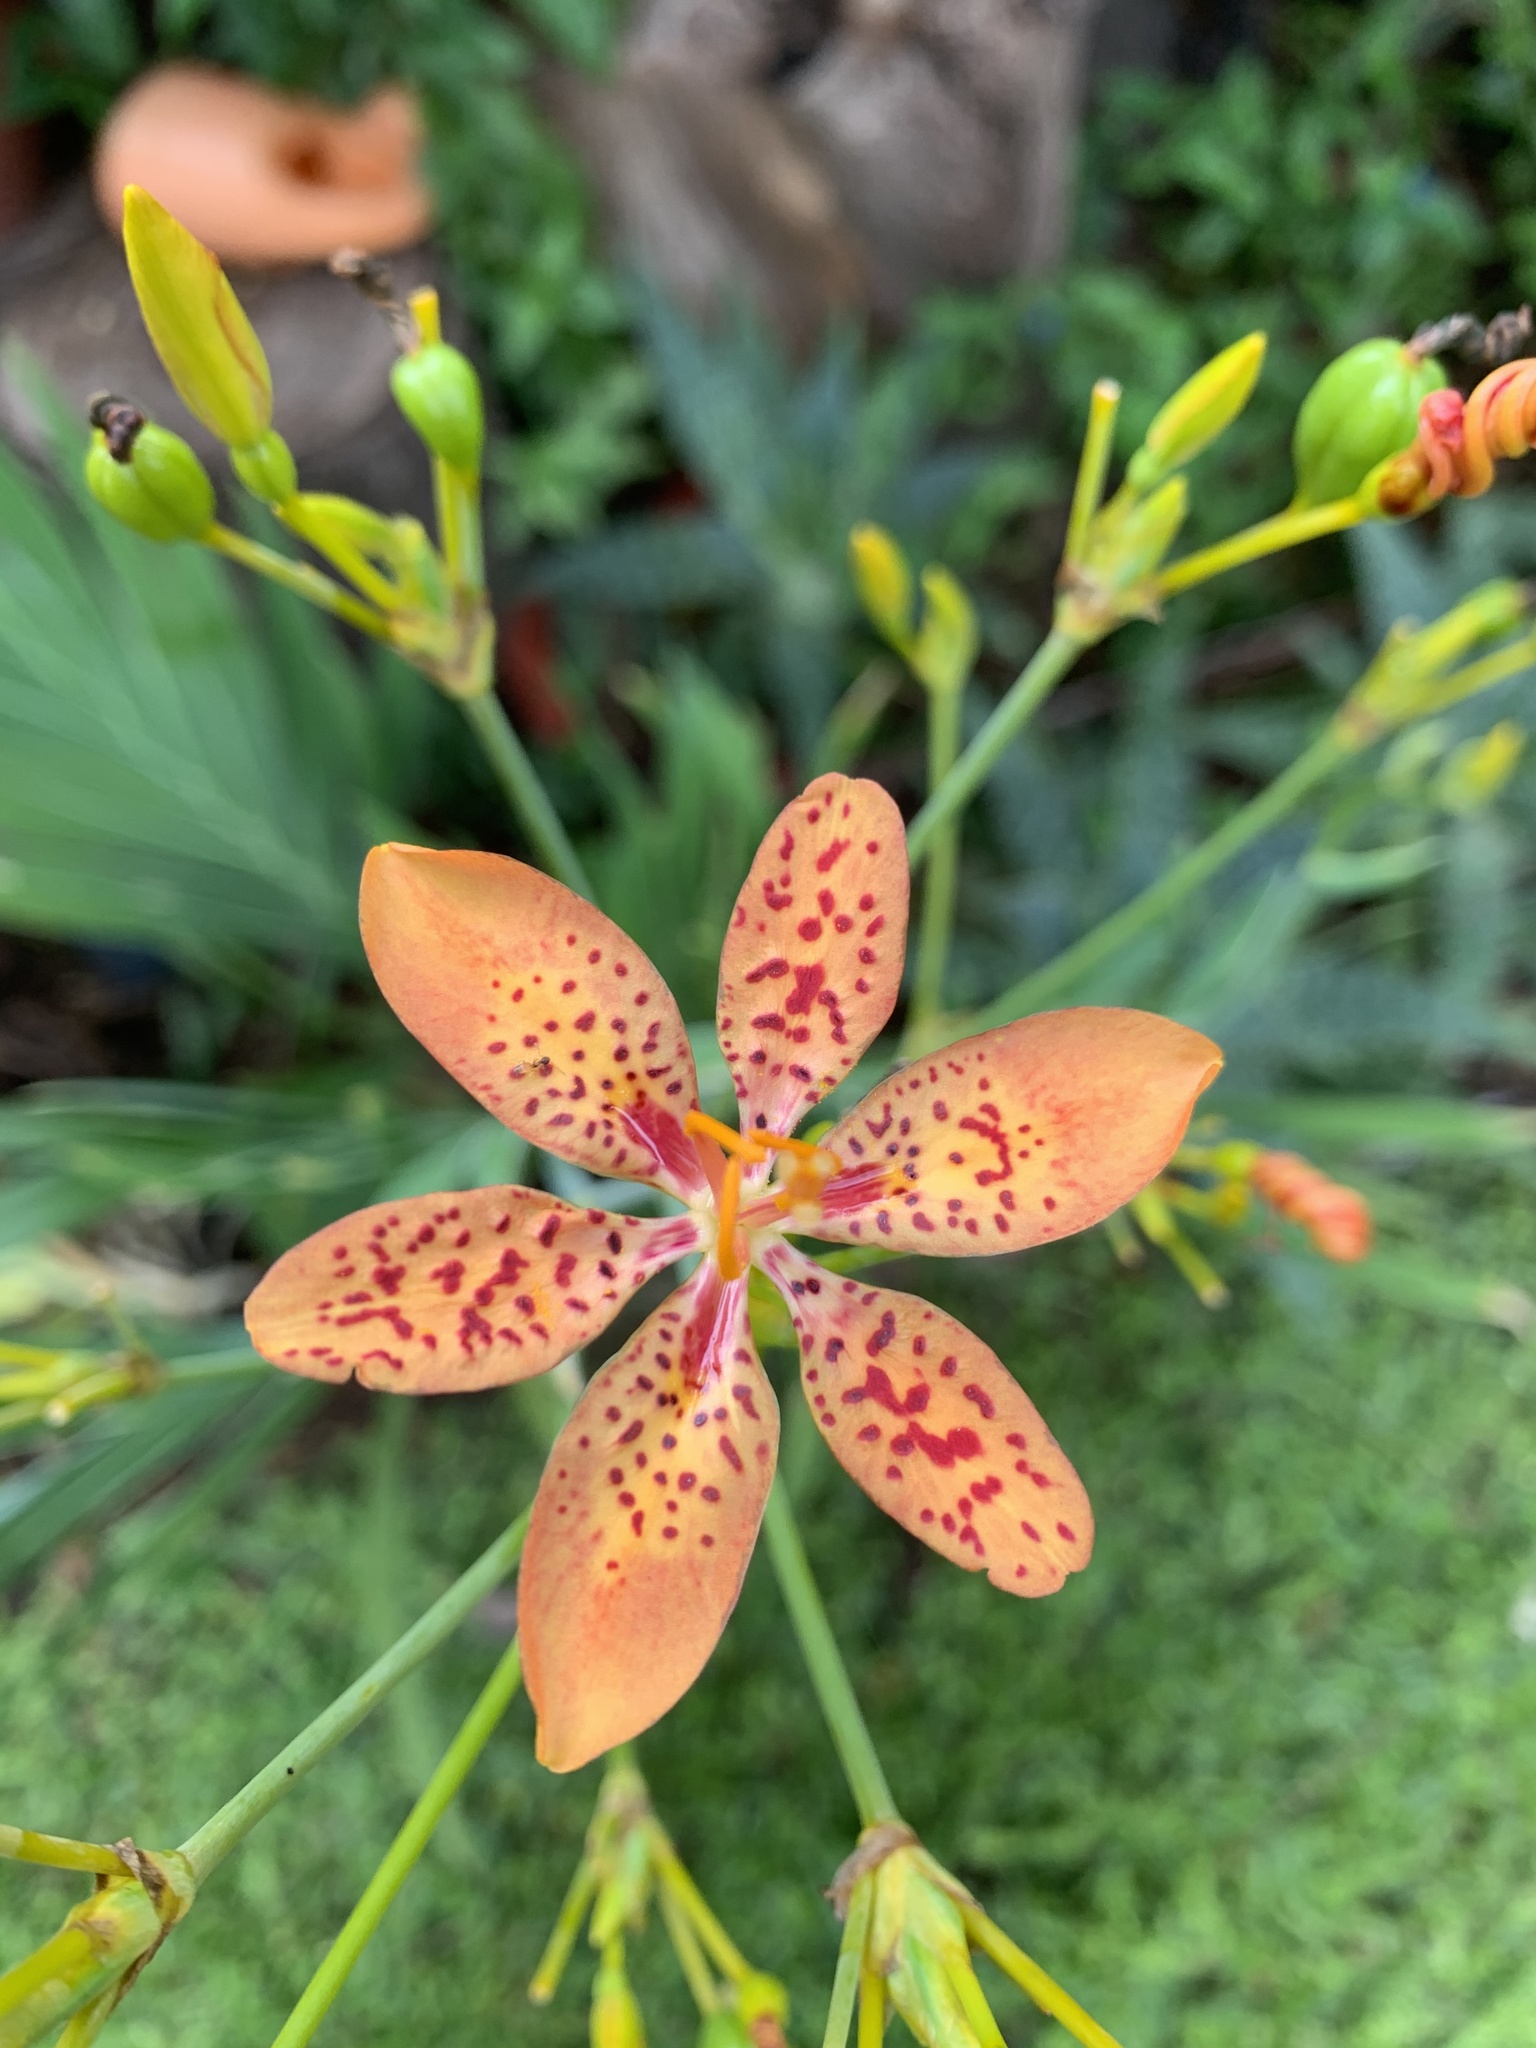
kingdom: Plantae
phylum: Tracheophyta
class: Liliopsida
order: Asparagales
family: Iridaceae
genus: Iris
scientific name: Iris domestica
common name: Belamcanda
